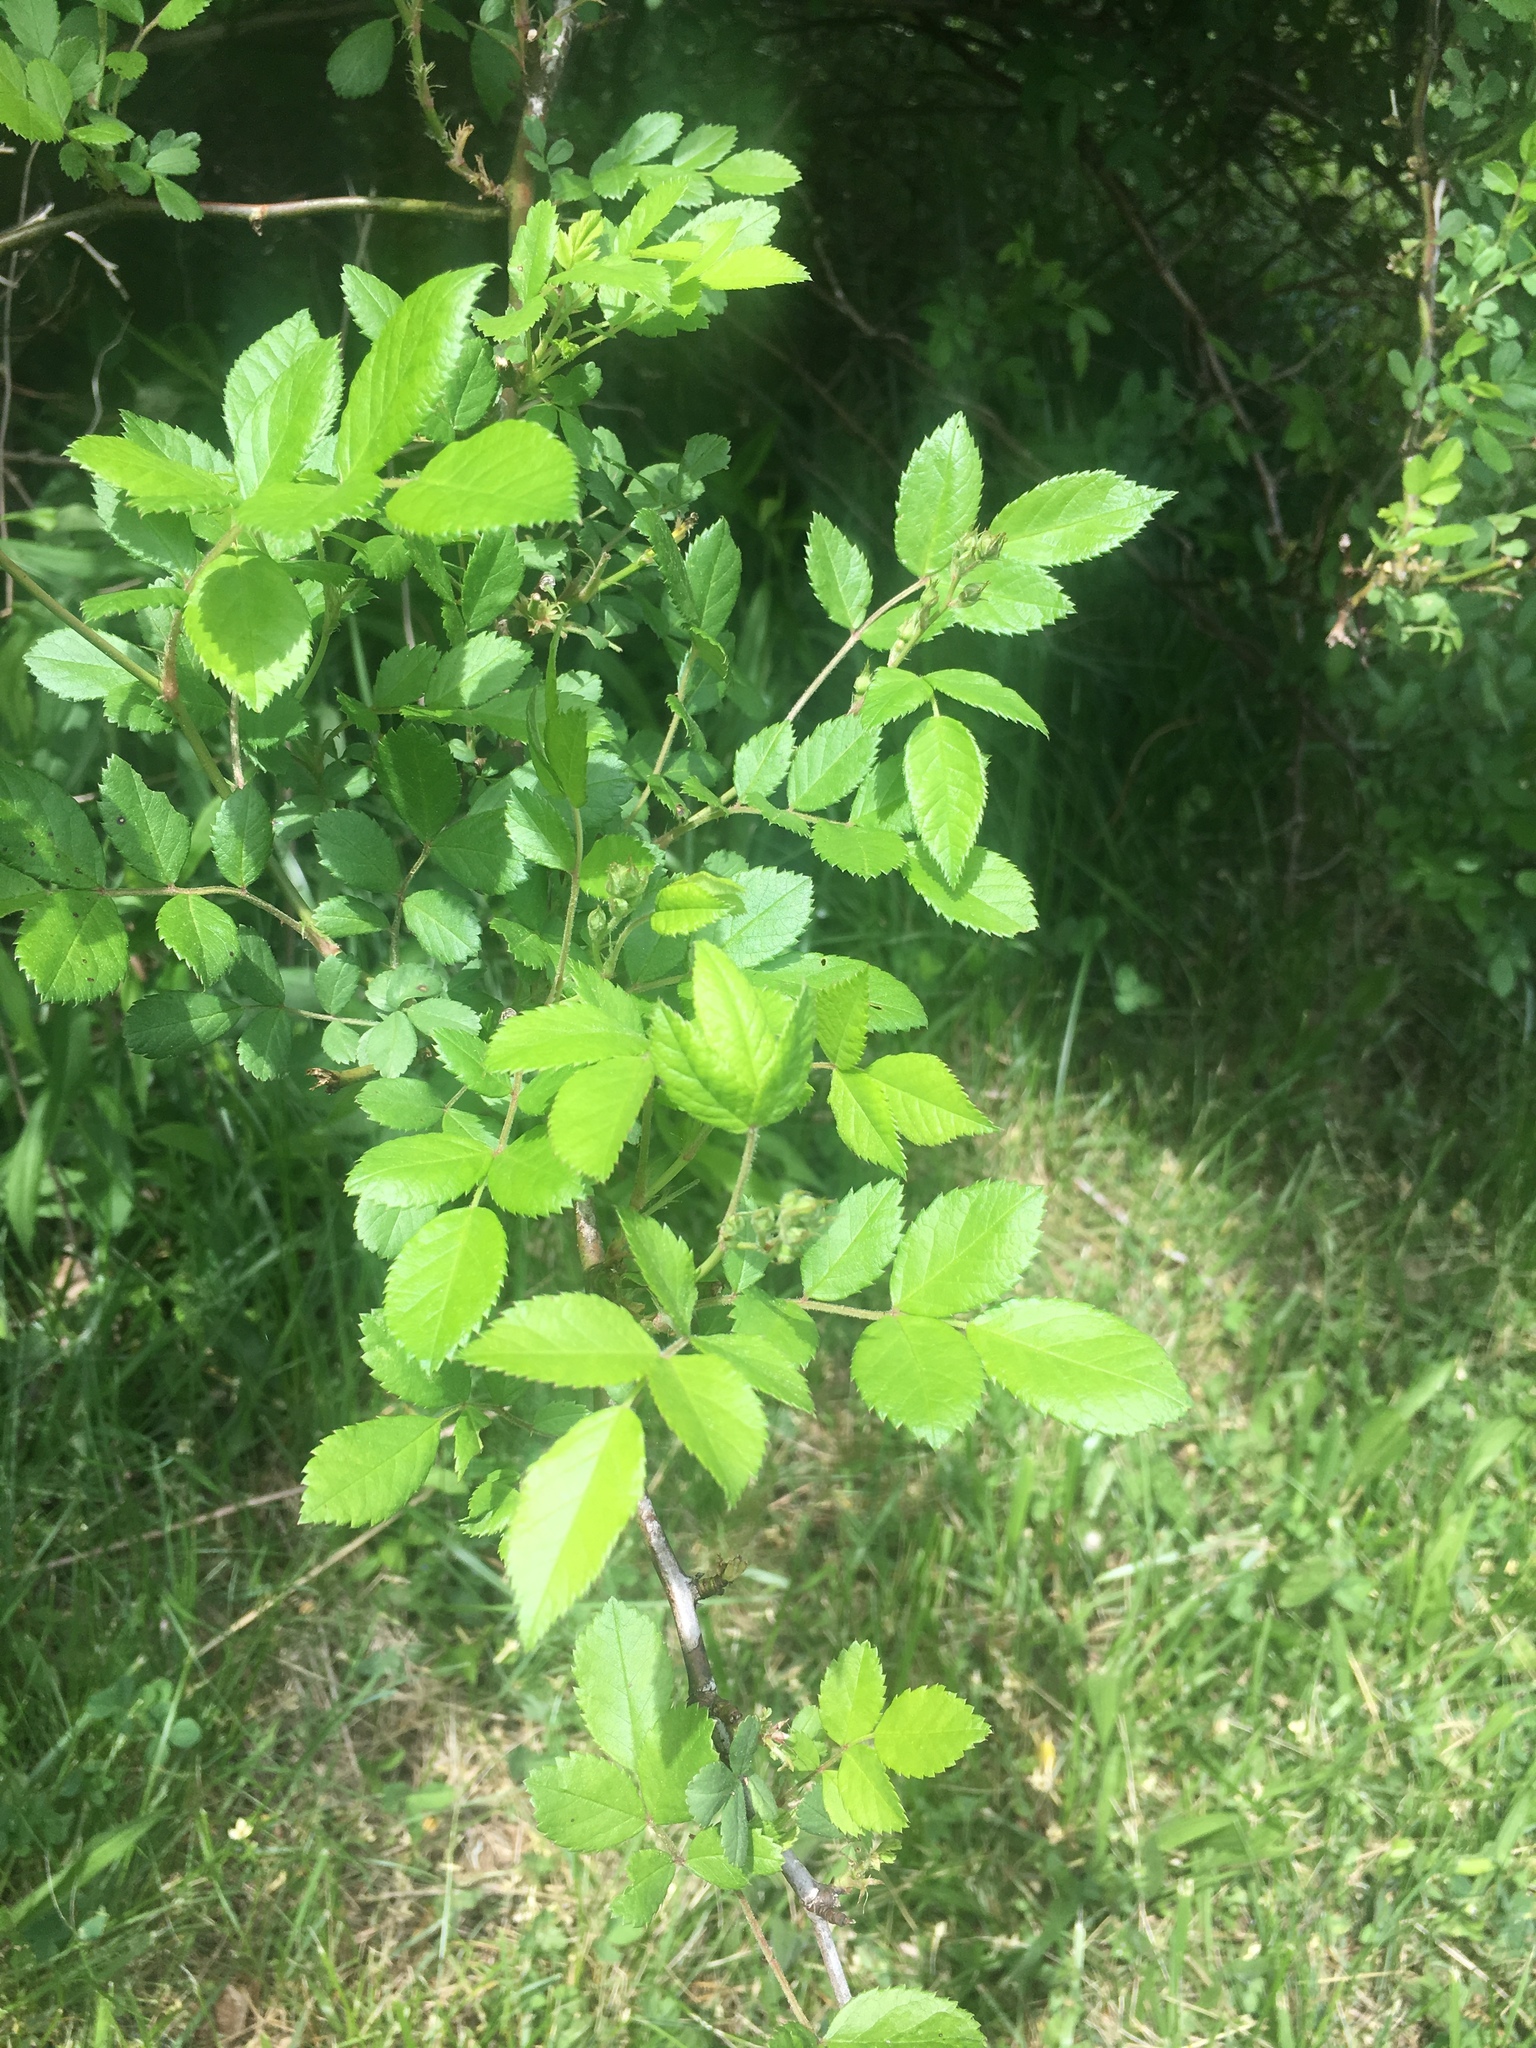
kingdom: Plantae
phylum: Tracheophyta
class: Magnoliopsida
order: Rosales
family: Rosaceae
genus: Rosa
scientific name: Rosa multiflora
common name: Multiflora rose
